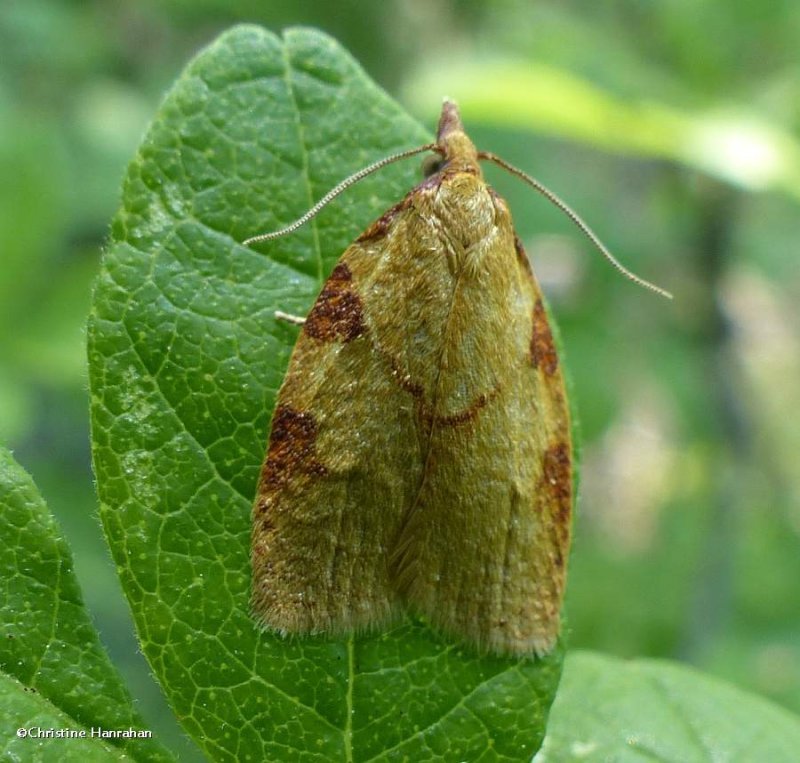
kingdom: Animalia
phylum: Arthropoda
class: Insecta
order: Lepidoptera
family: Tortricidae
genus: Cenopis
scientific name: Cenopis directana
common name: Chokecherry leafroller moth
